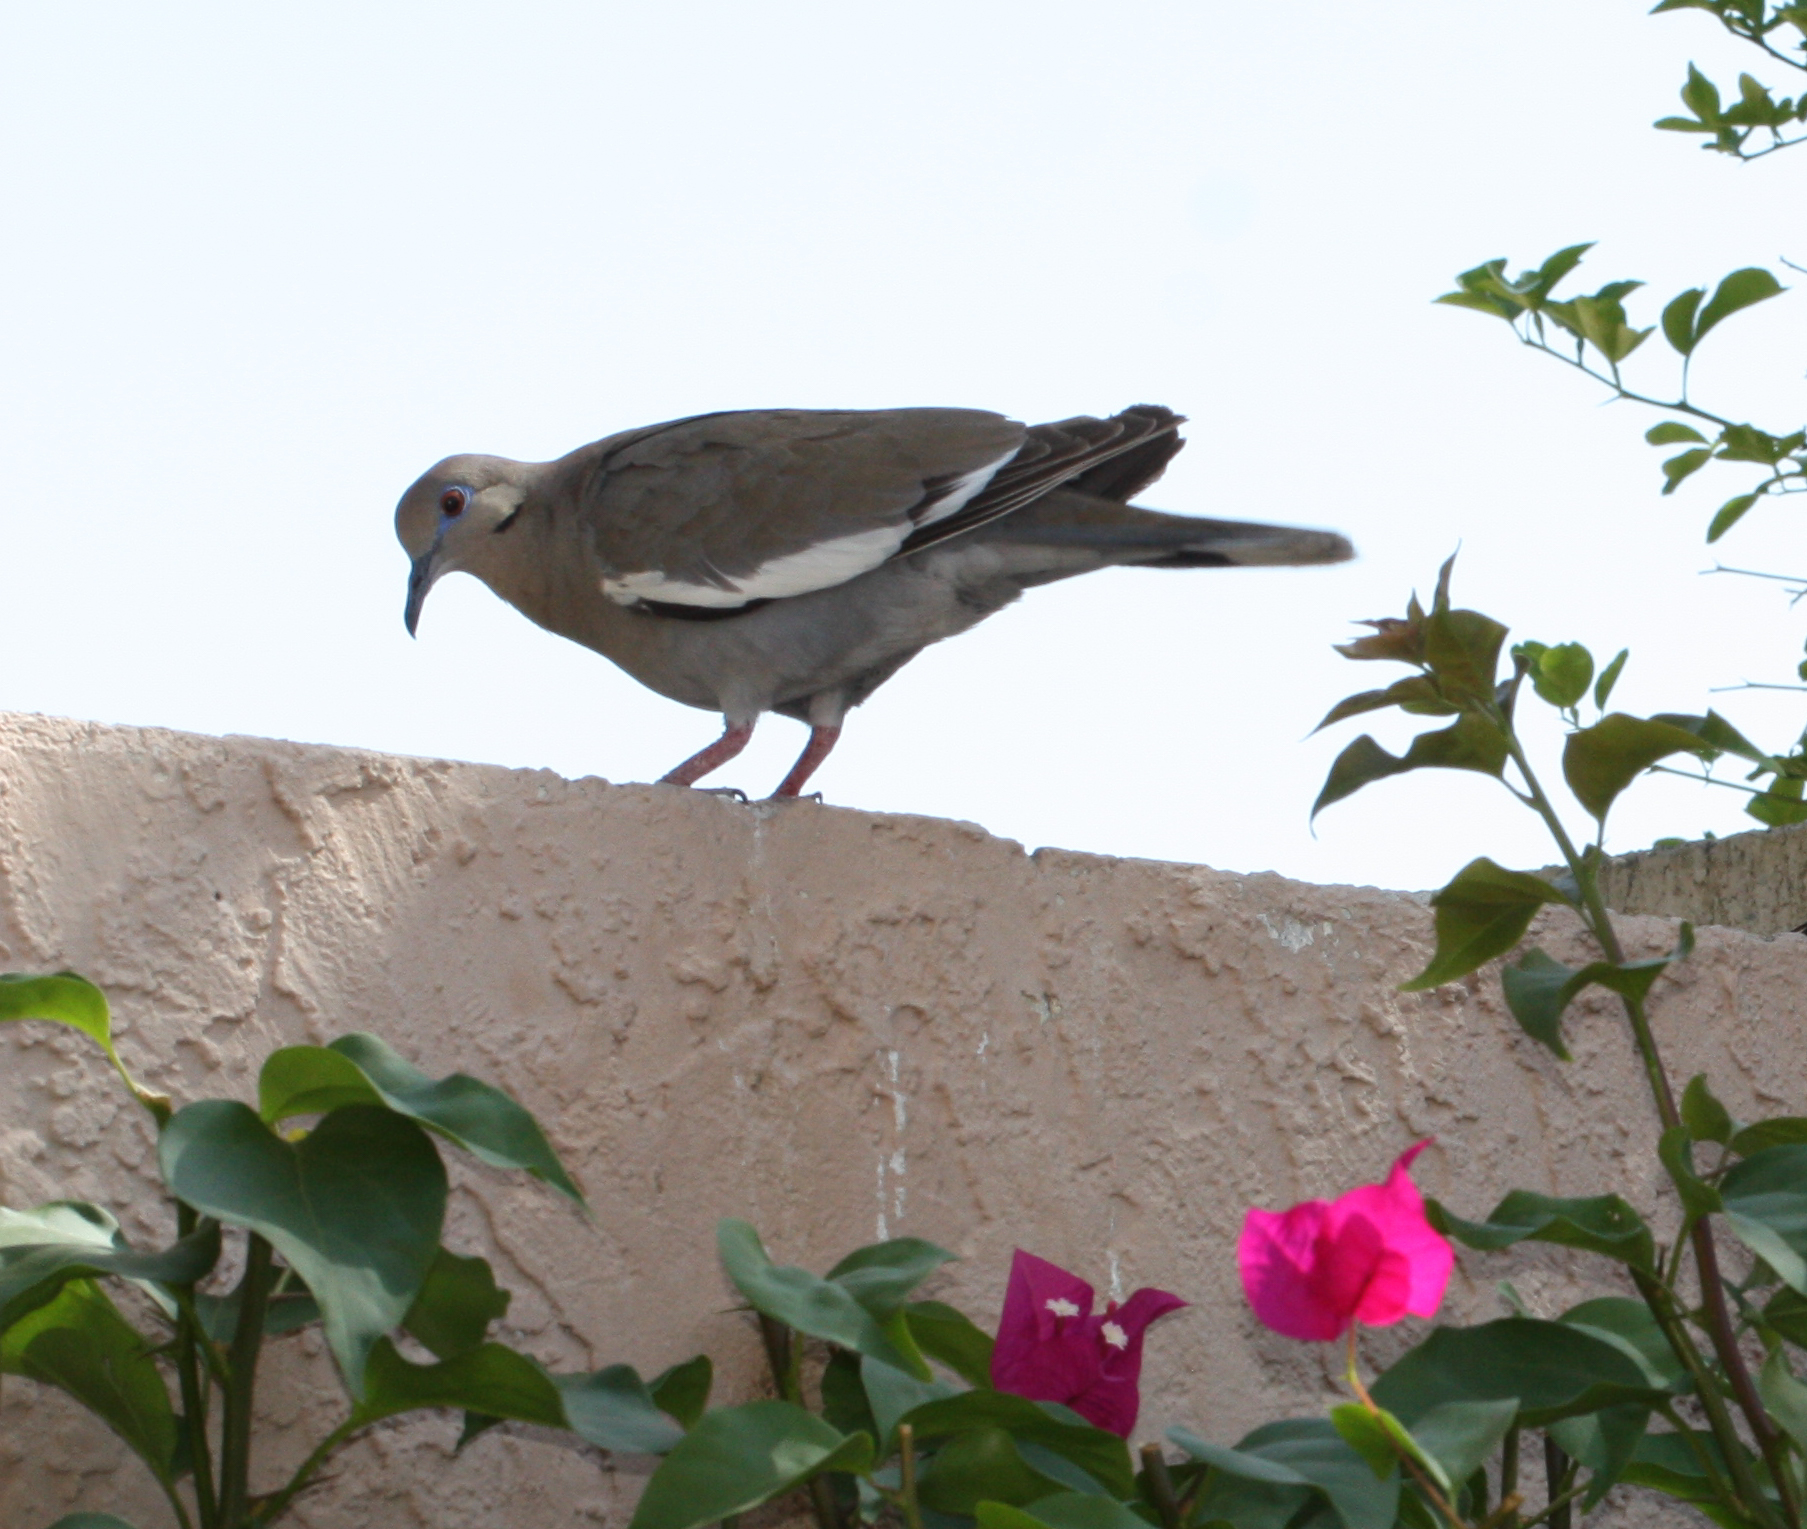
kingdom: Animalia
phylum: Chordata
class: Aves
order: Columbiformes
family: Columbidae
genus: Zenaida
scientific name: Zenaida asiatica
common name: White-winged dove
